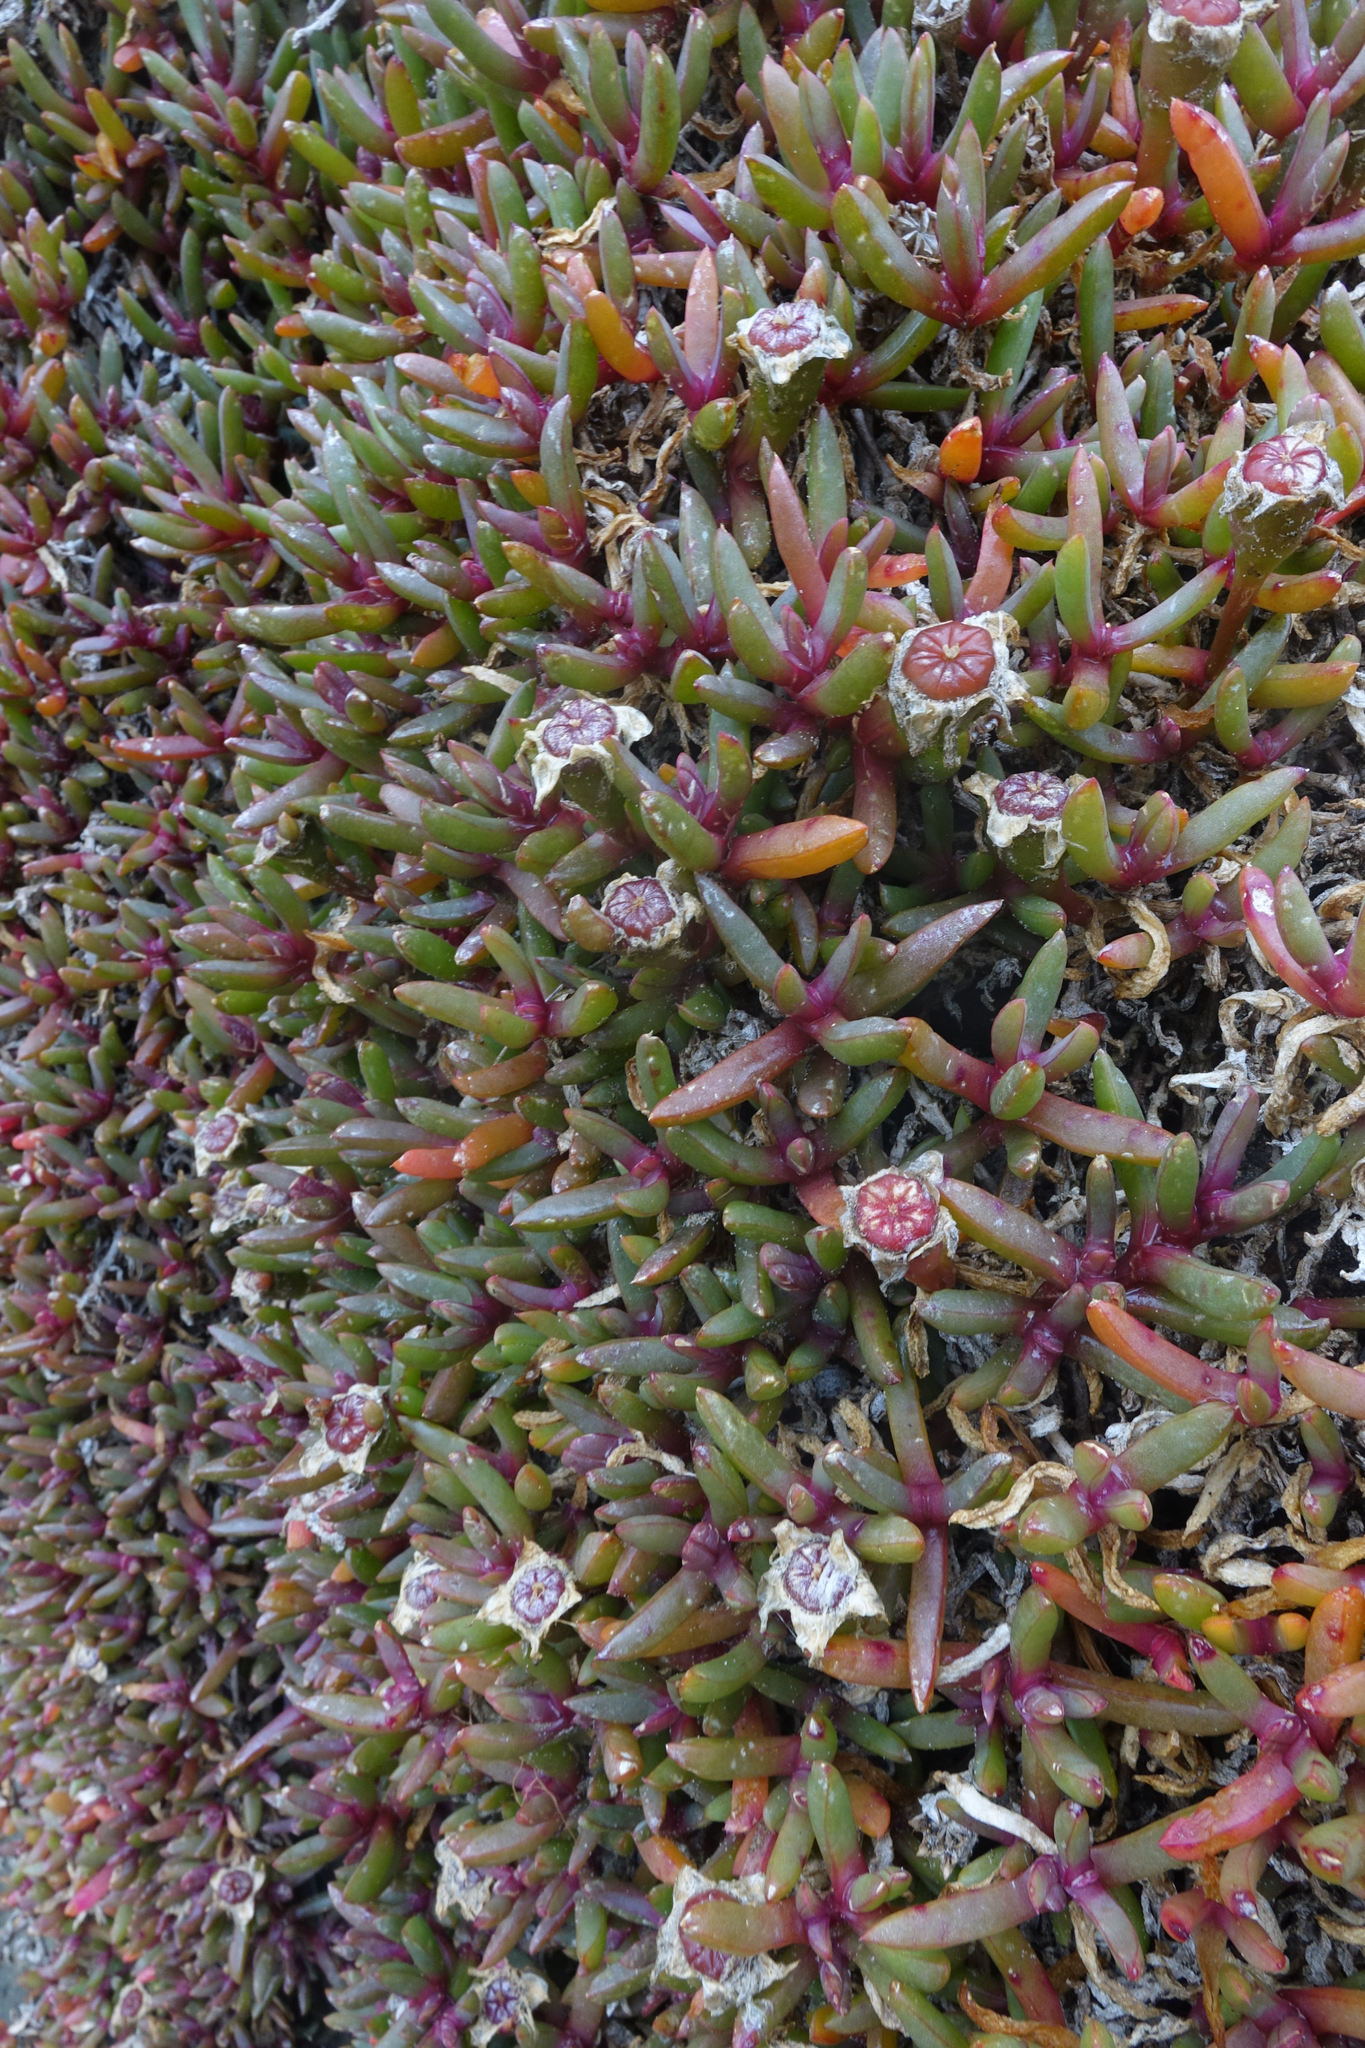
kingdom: Plantae
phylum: Tracheophyta
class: Magnoliopsida
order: Caryophyllales
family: Aizoaceae
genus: Disphyma
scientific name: Disphyma australe
